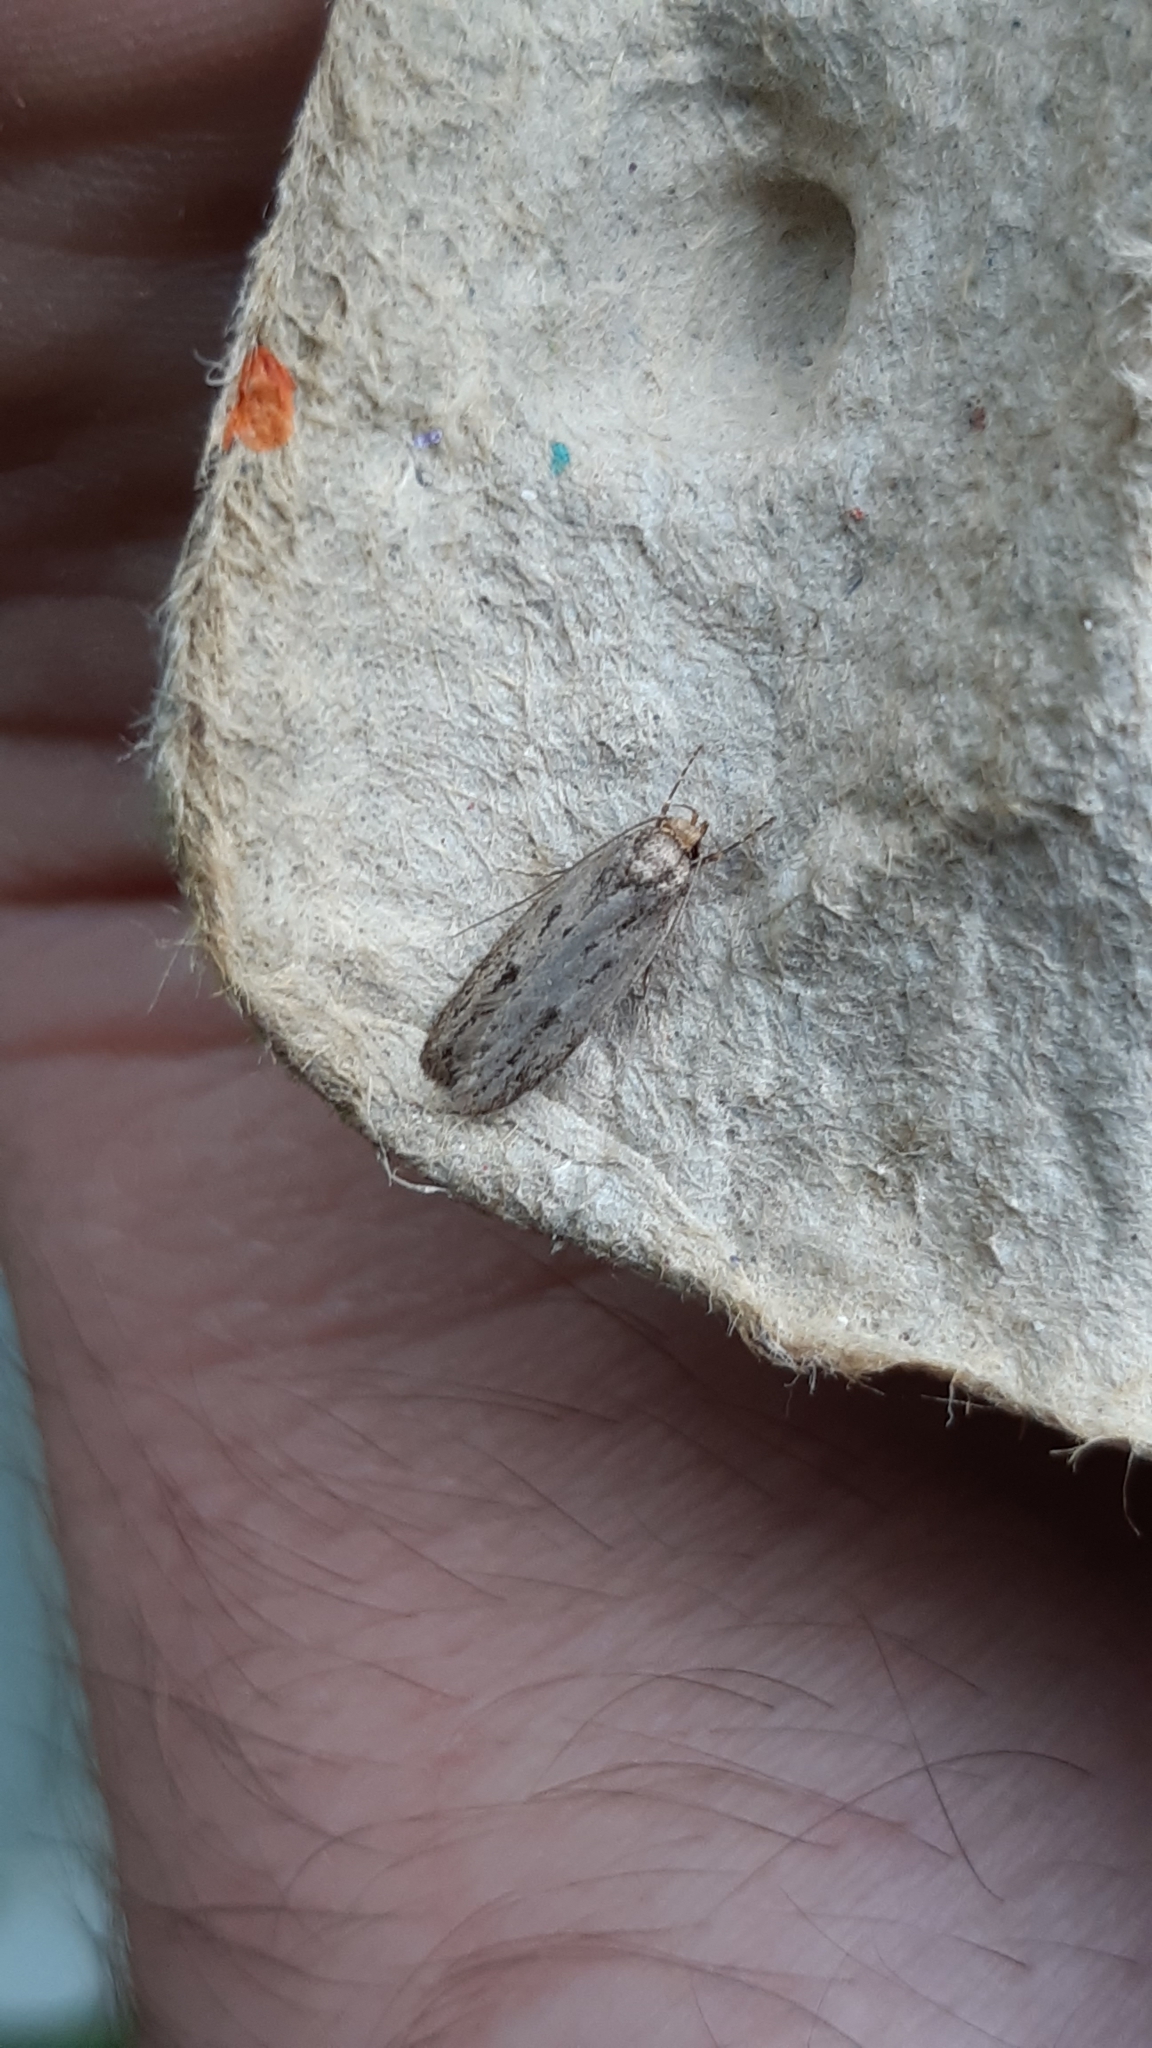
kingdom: Animalia
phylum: Arthropoda
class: Insecta
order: Lepidoptera
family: Oecophoridae
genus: Hofmannophila
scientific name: Hofmannophila pseudospretella
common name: Brown house moth
